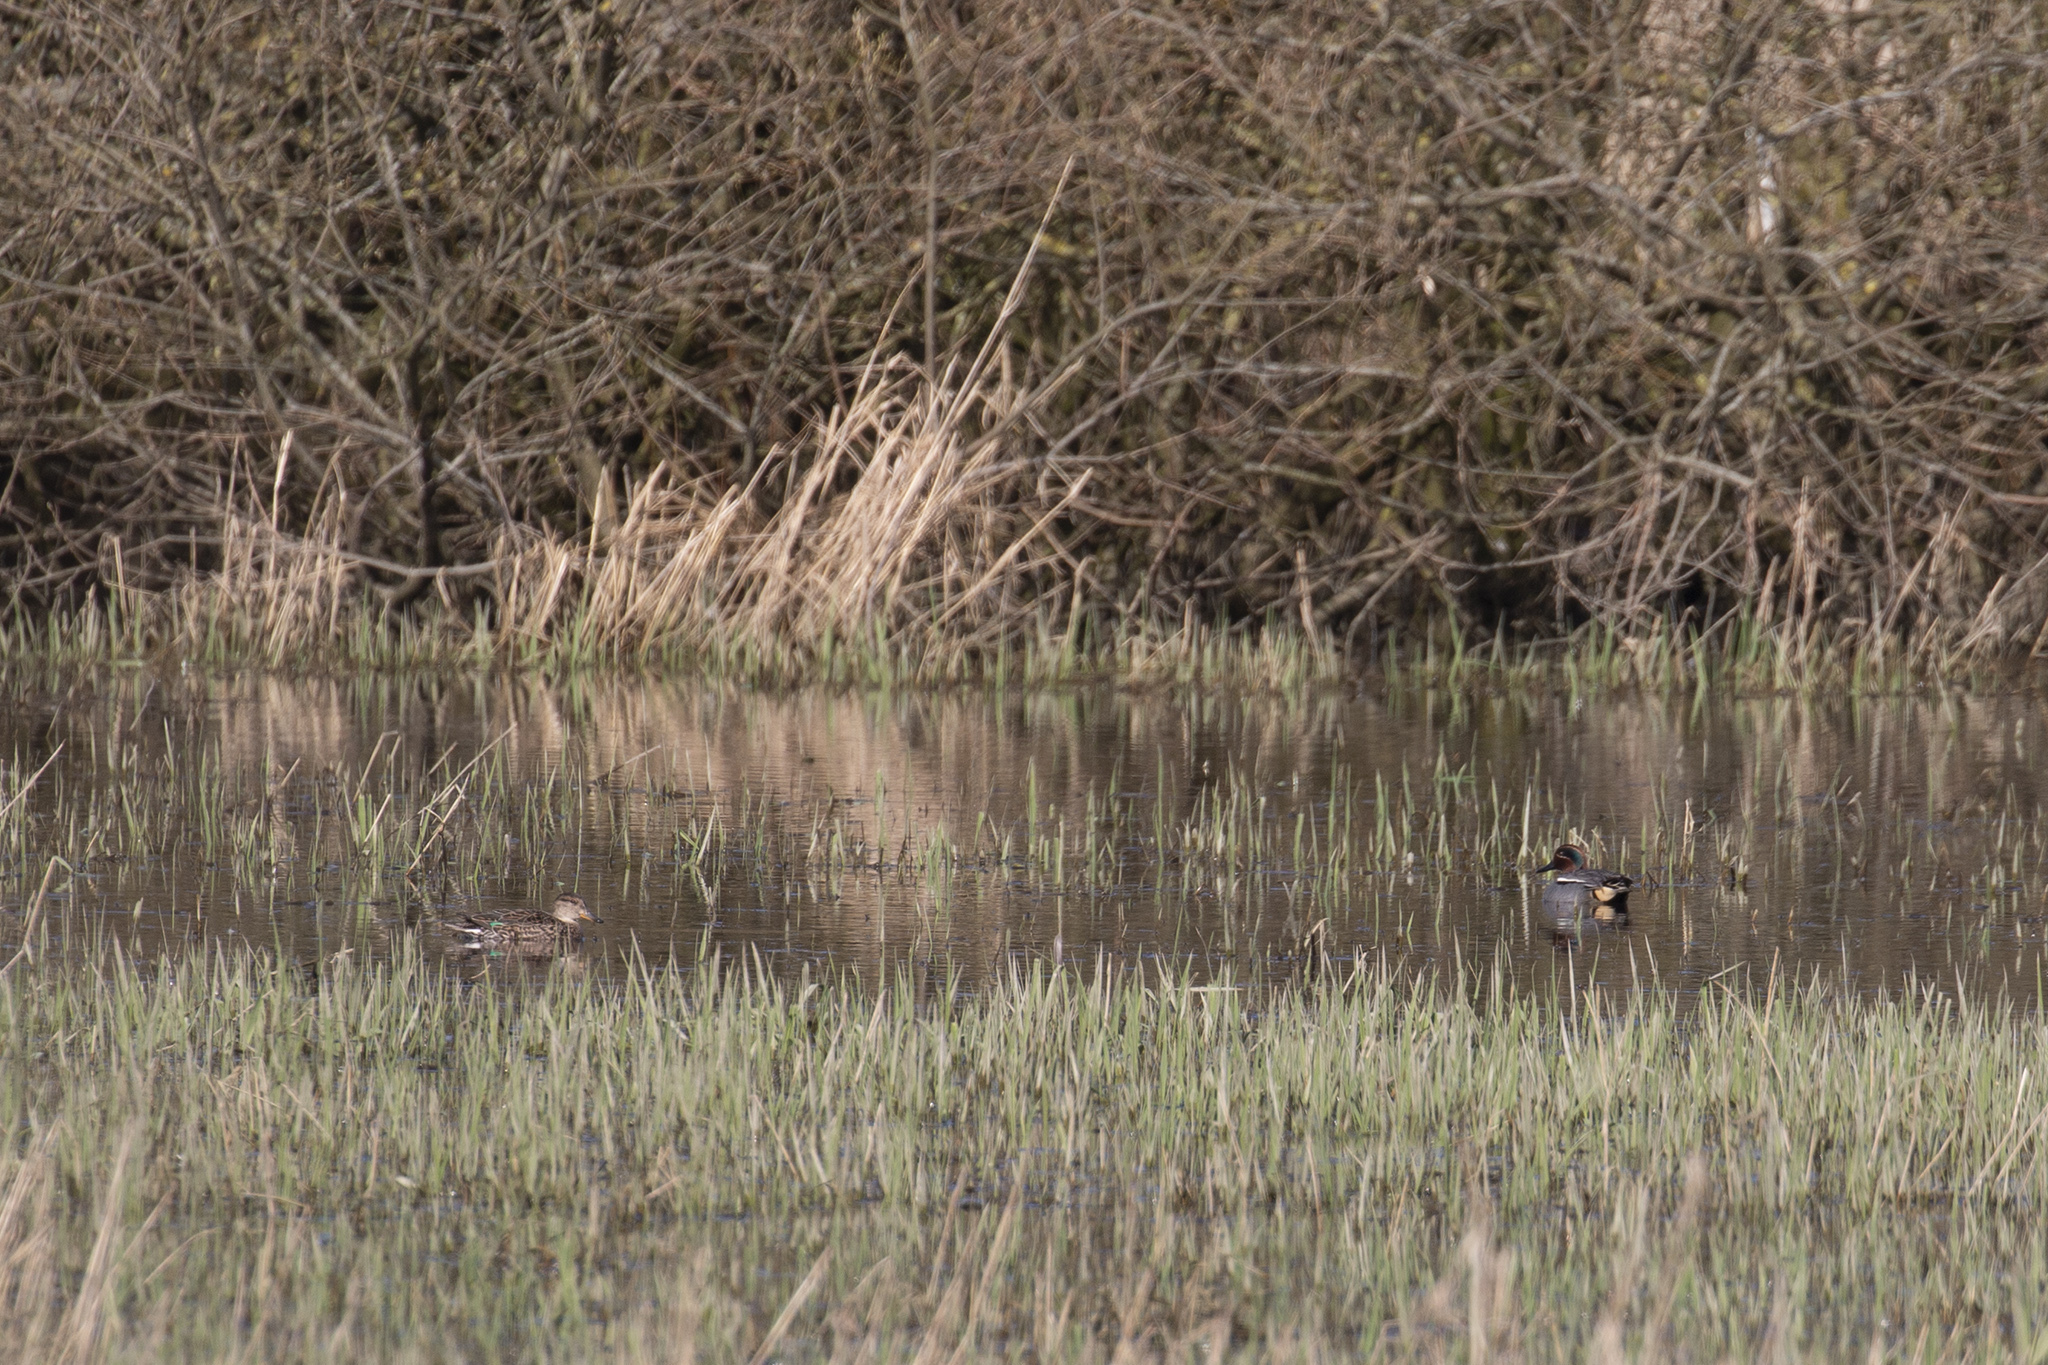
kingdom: Animalia
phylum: Chordata
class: Aves
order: Anseriformes
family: Anatidae
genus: Anas
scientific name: Anas crecca
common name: Eurasian teal
